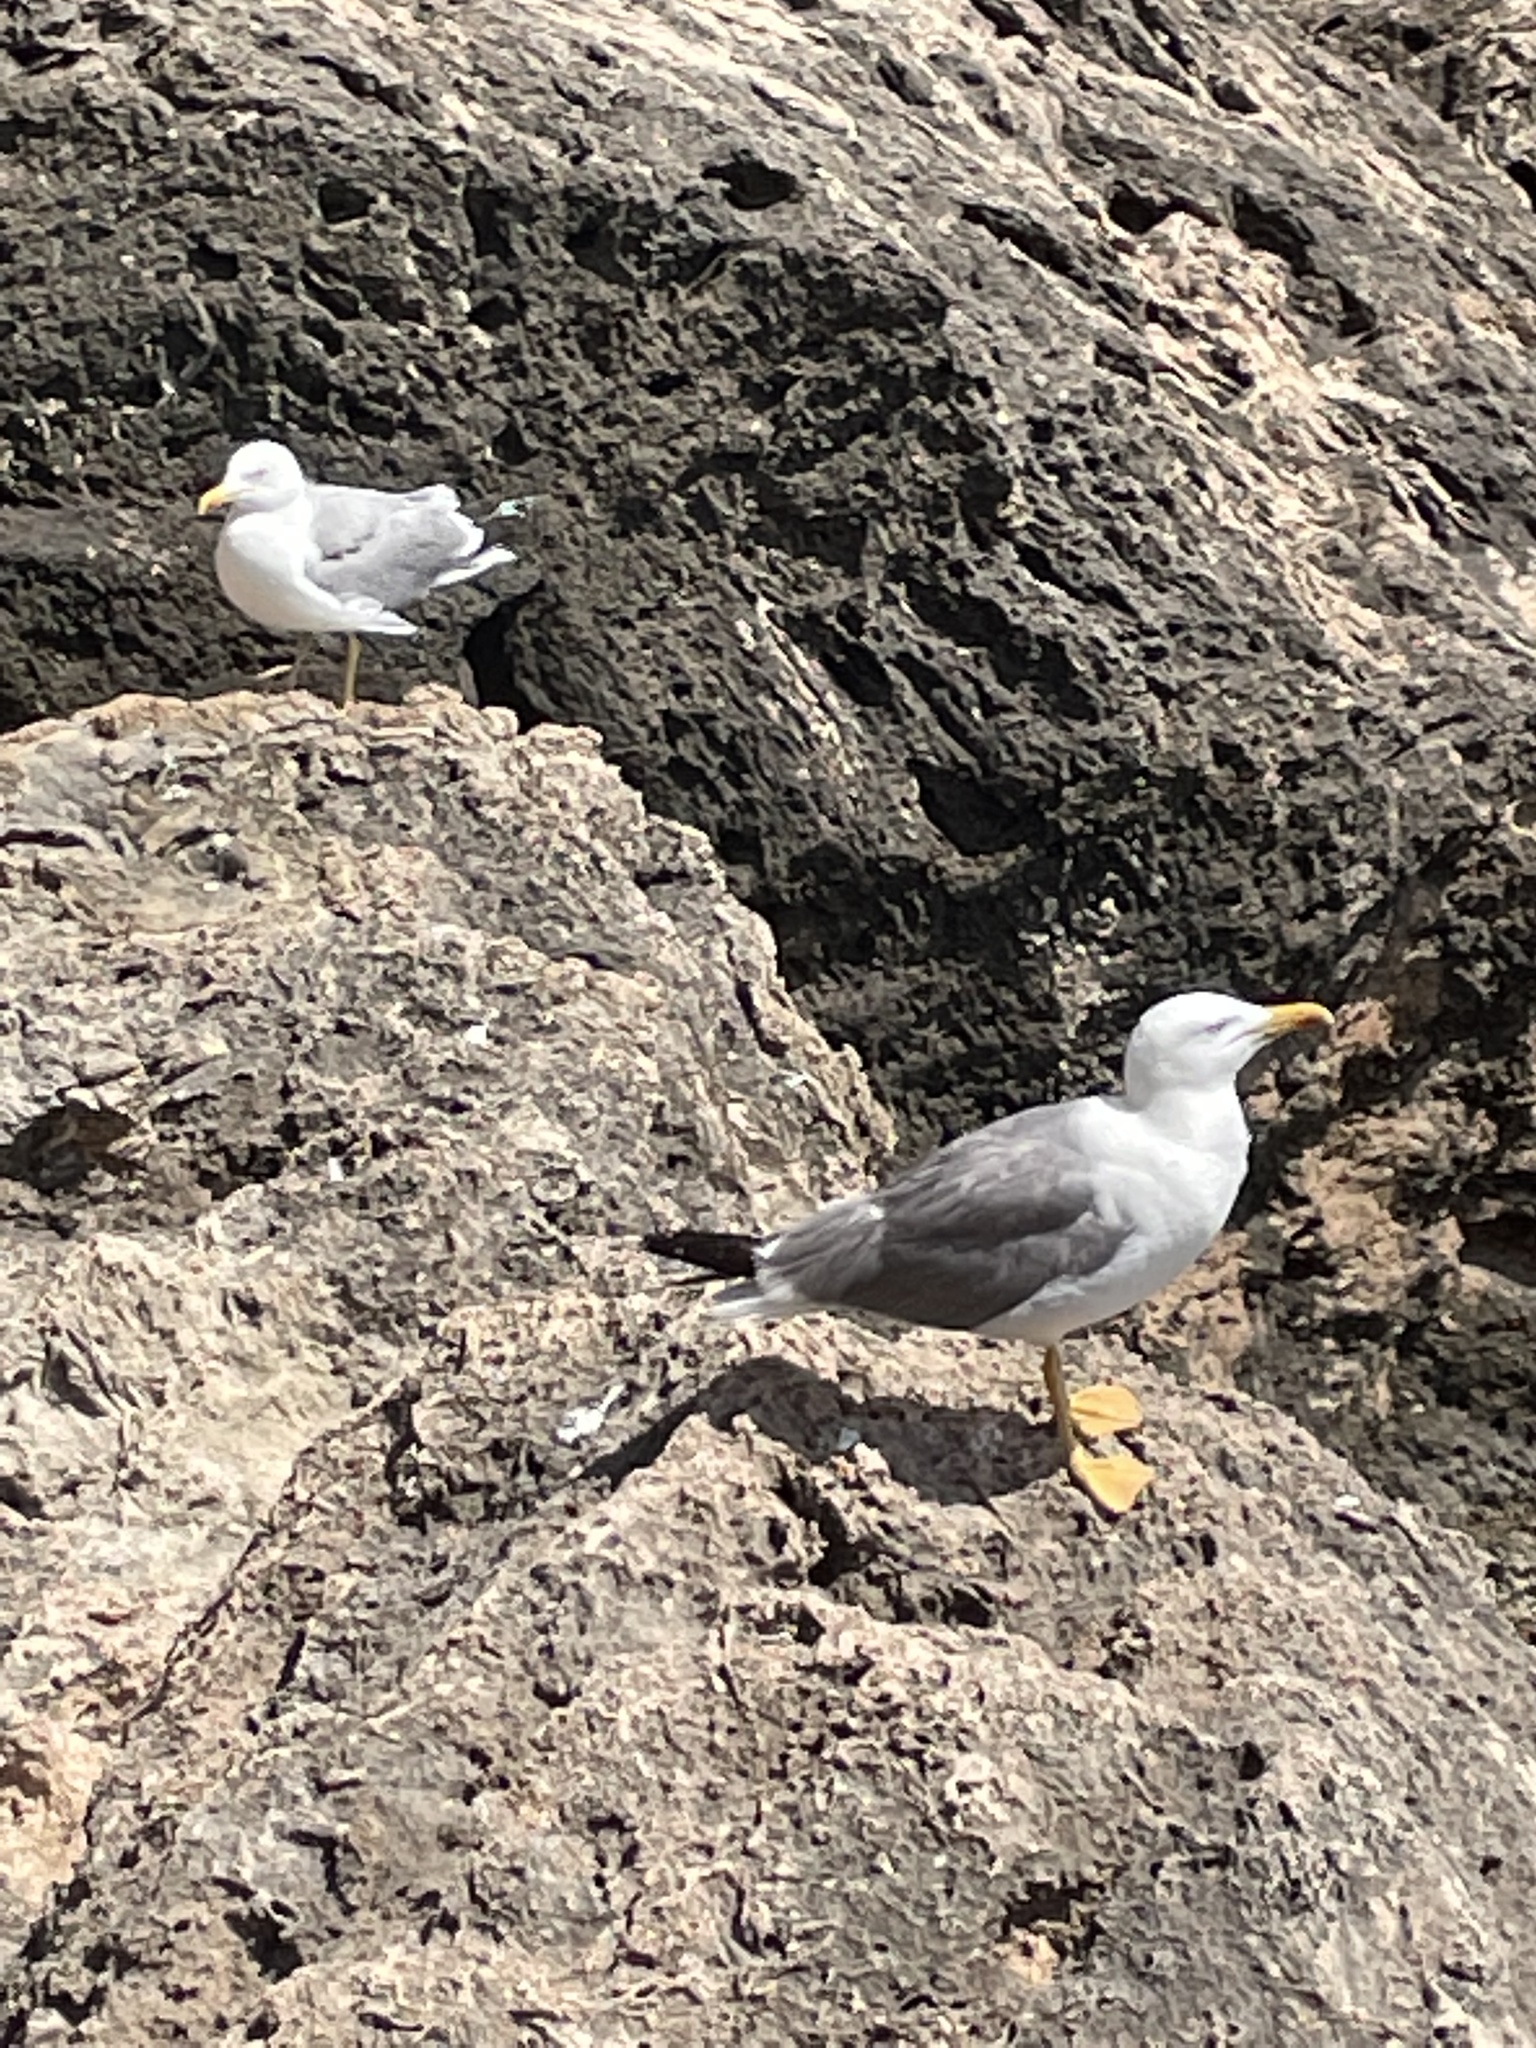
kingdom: Animalia
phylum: Chordata
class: Aves
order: Charadriiformes
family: Laridae
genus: Larus
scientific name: Larus michahellis
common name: Yellow-legged gull
